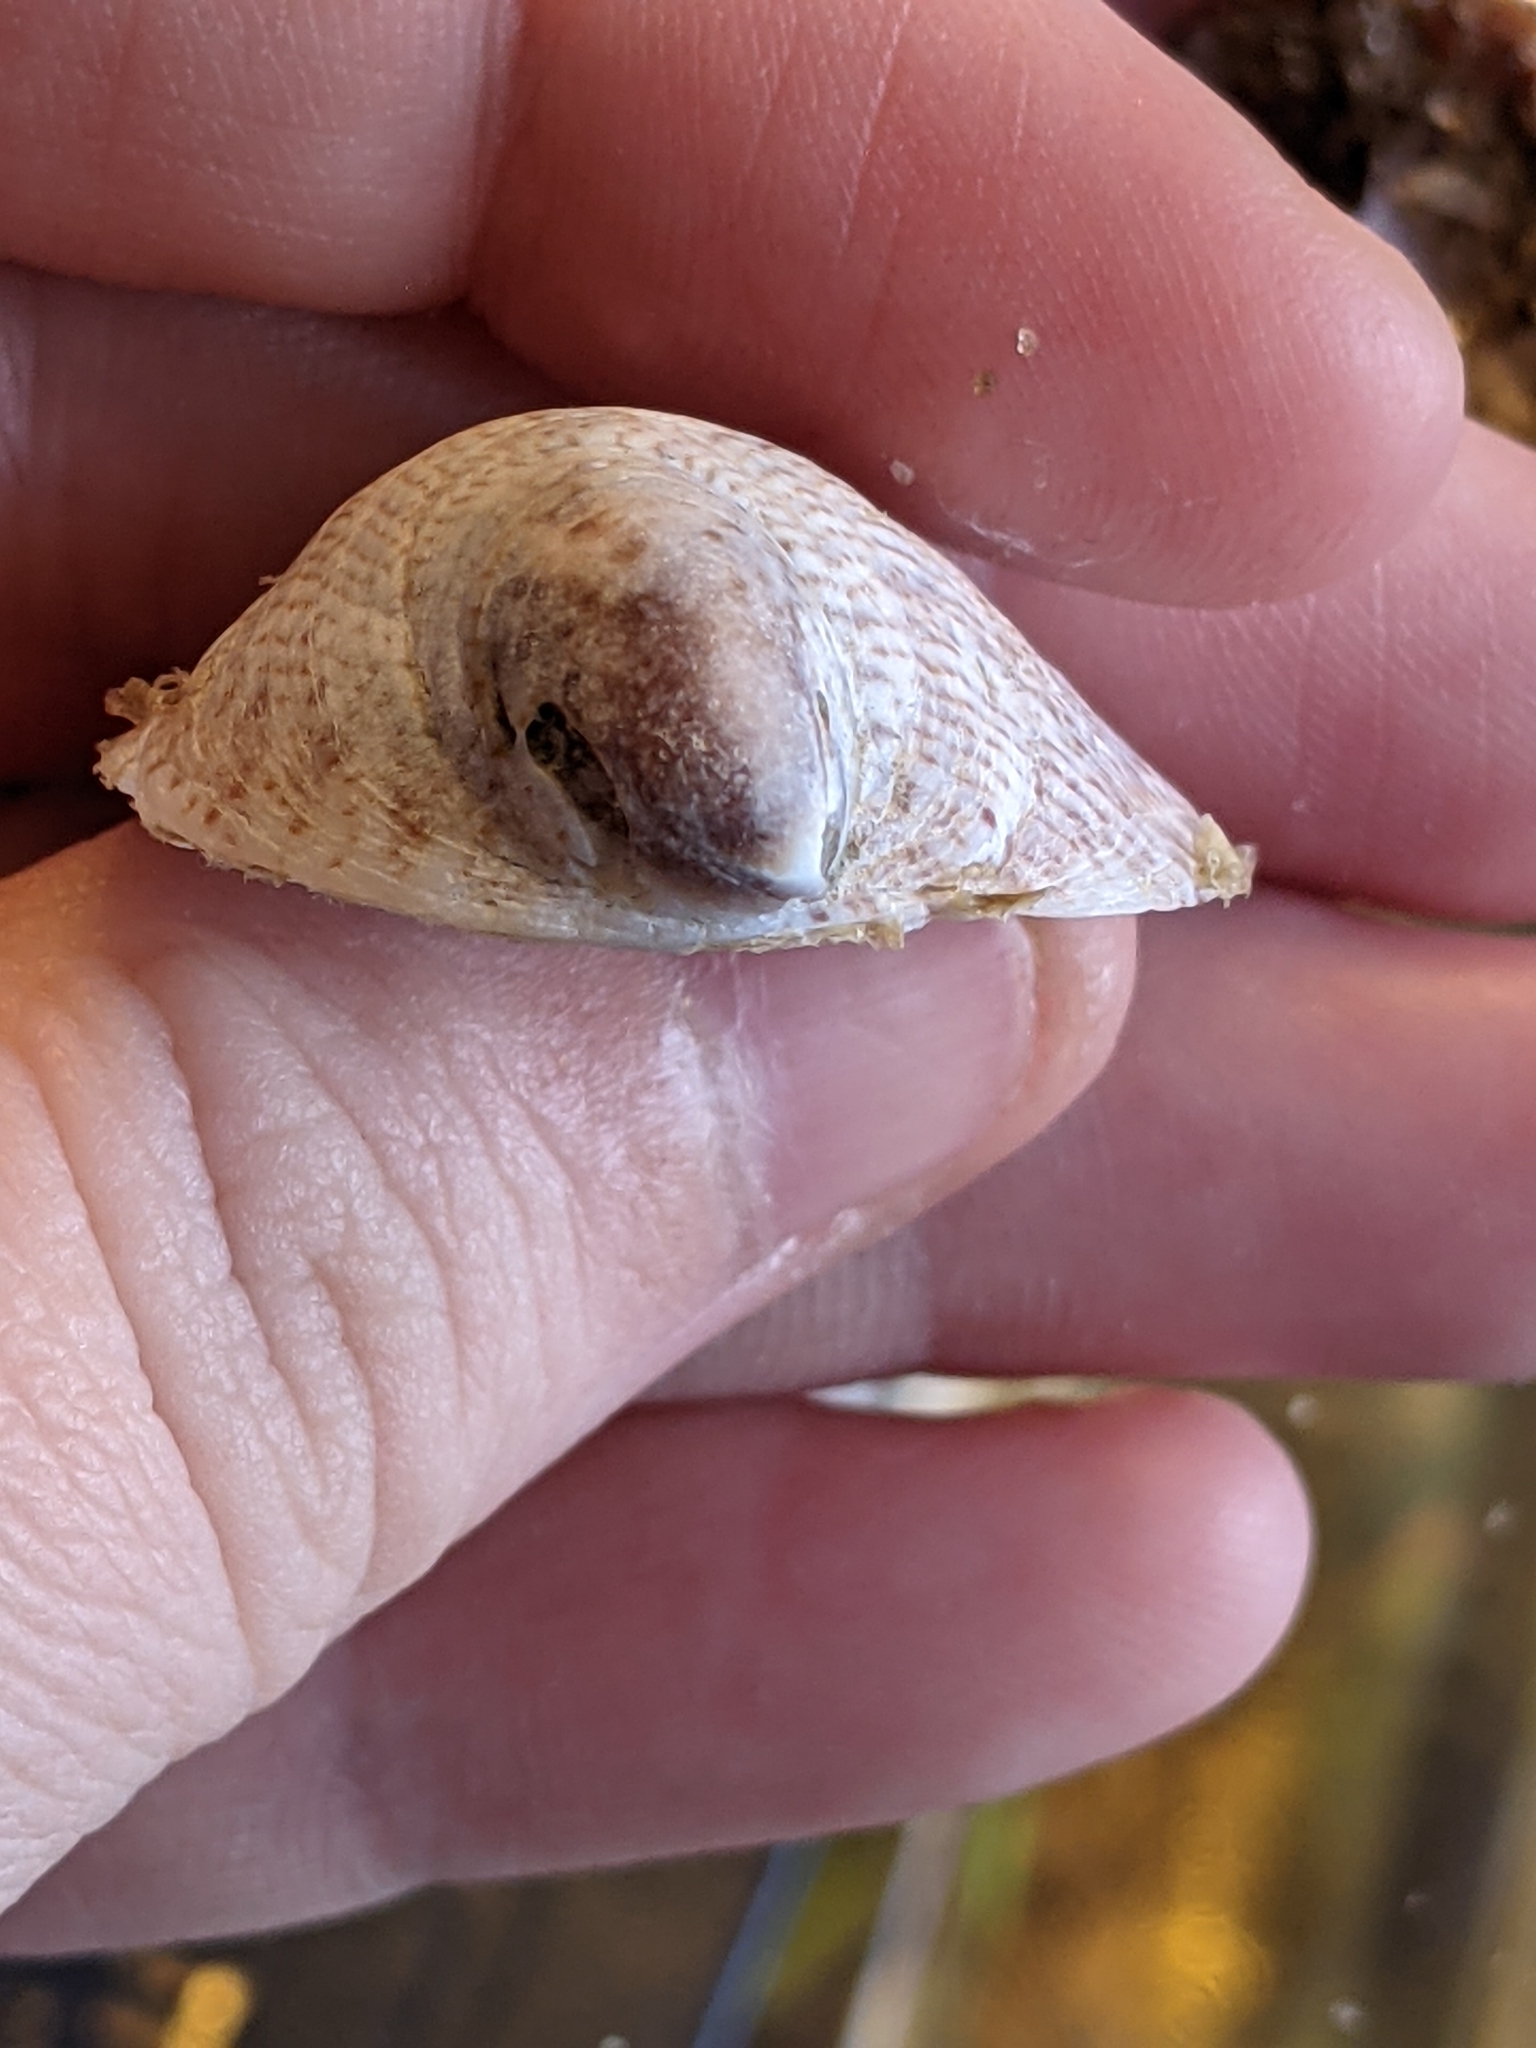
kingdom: Animalia
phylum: Mollusca
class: Gastropoda
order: Littorinimorpha
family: Calyptraeidae
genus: Crepidula
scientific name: Crepidula fornicata
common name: Slipper limpet
